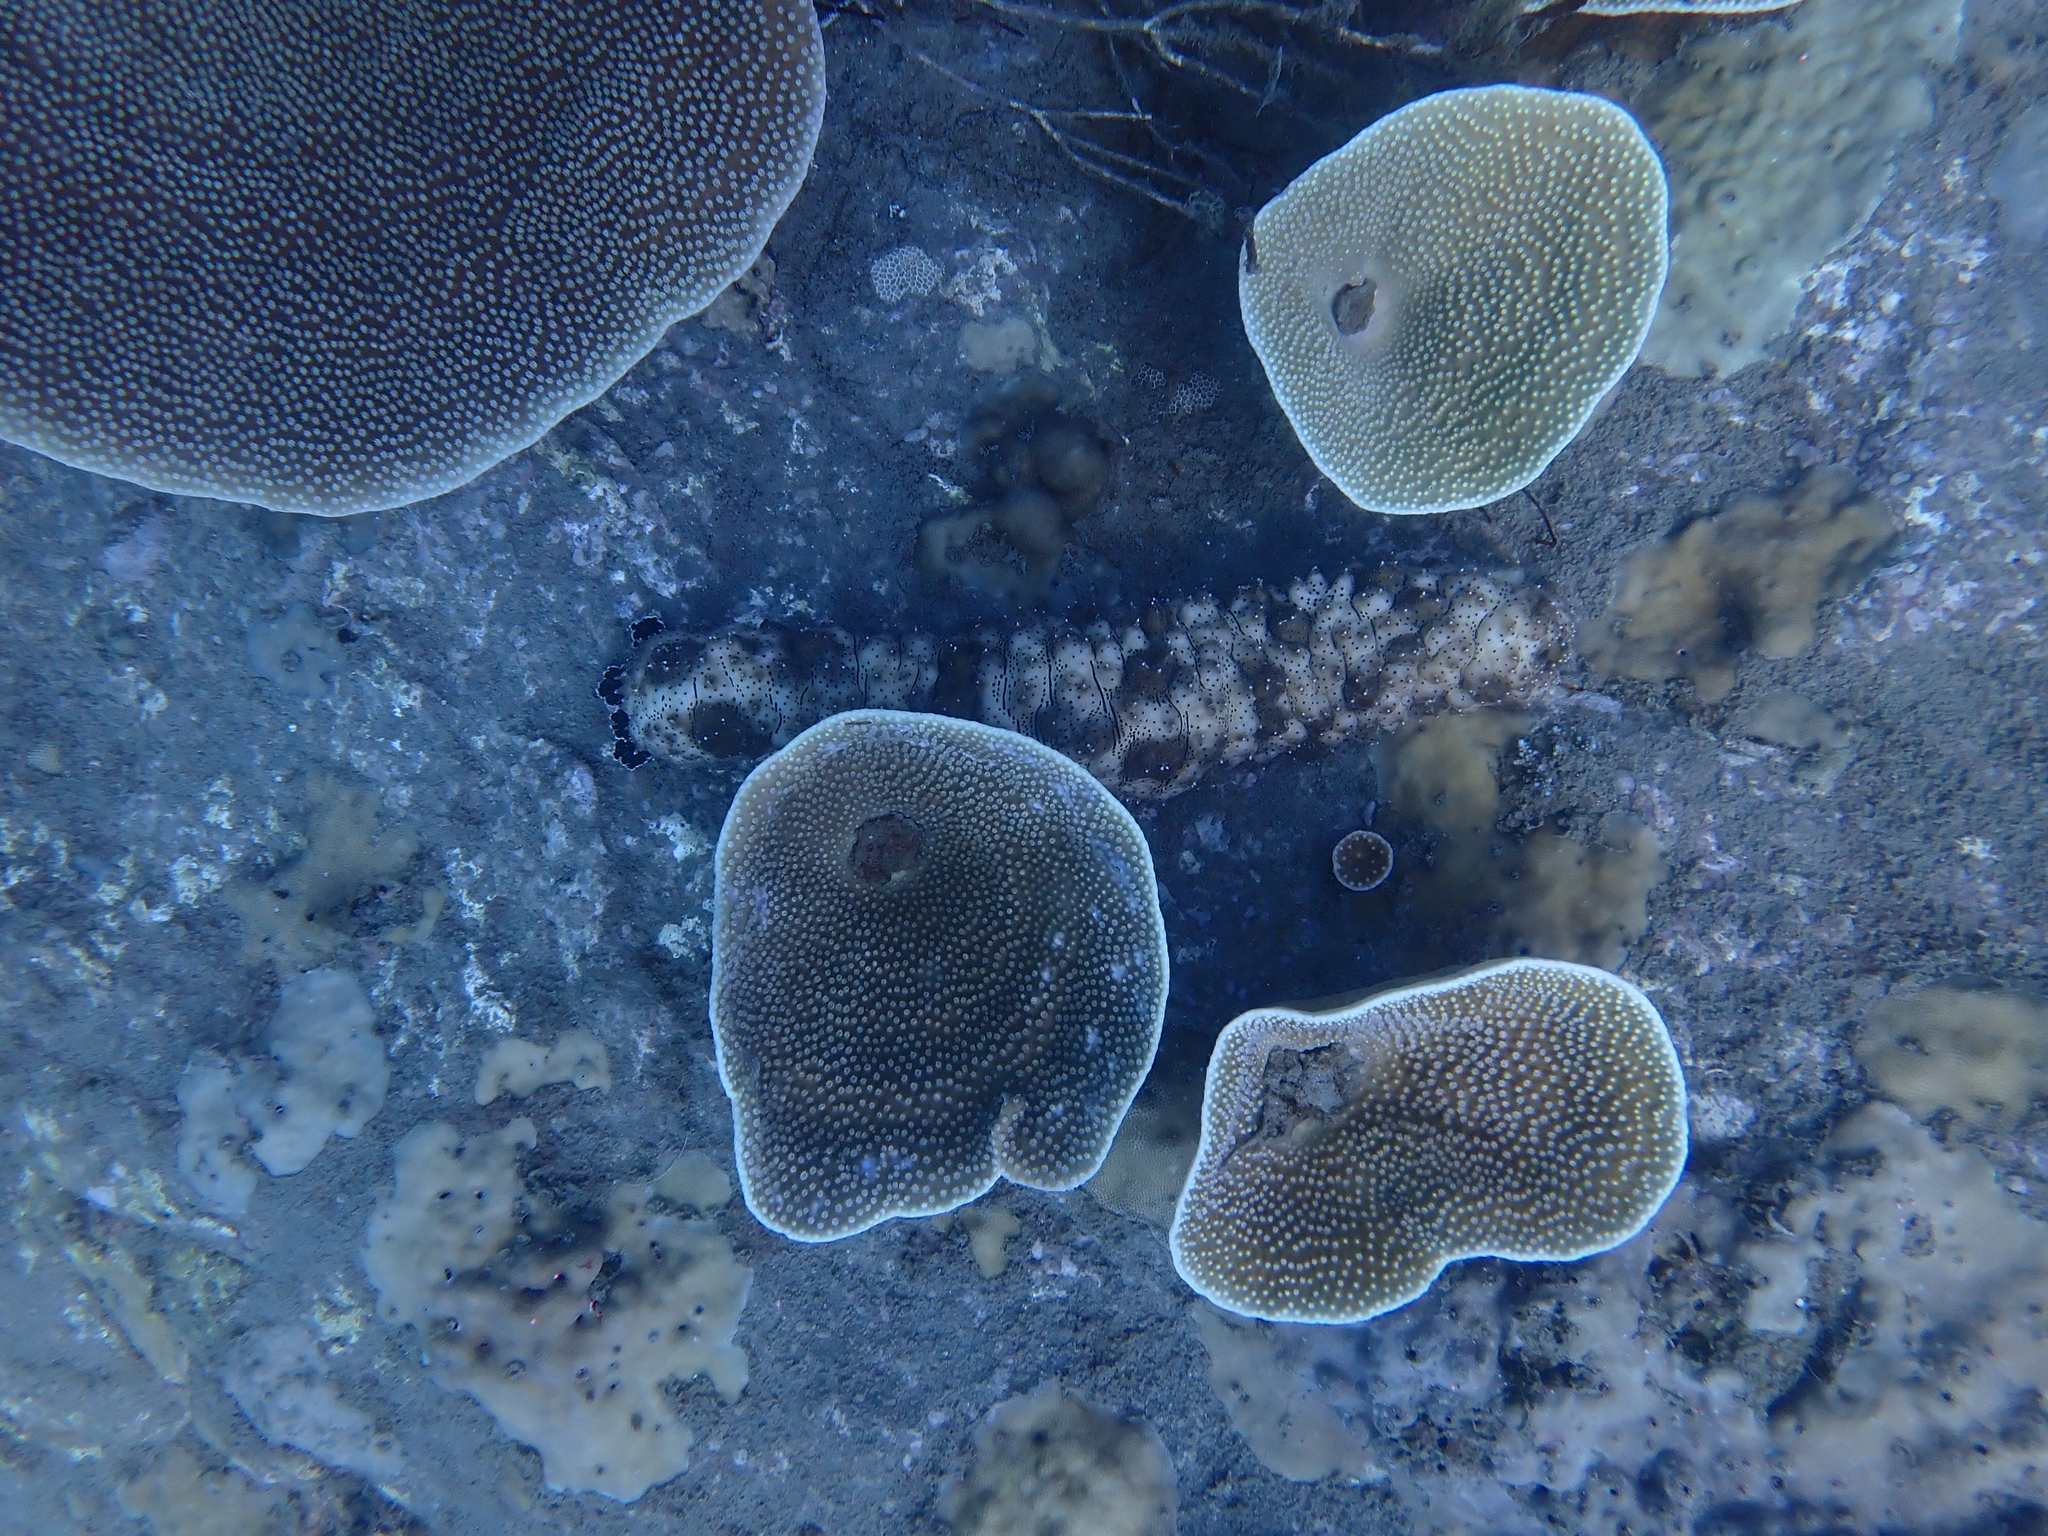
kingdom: Animalia
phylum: Echinodermata
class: Holothuroidea
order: Holothuriida
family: Holothuriidae
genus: Pearsonothuria
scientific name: Pearsonothuria graeffei
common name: Blackspotted sea cucumber
